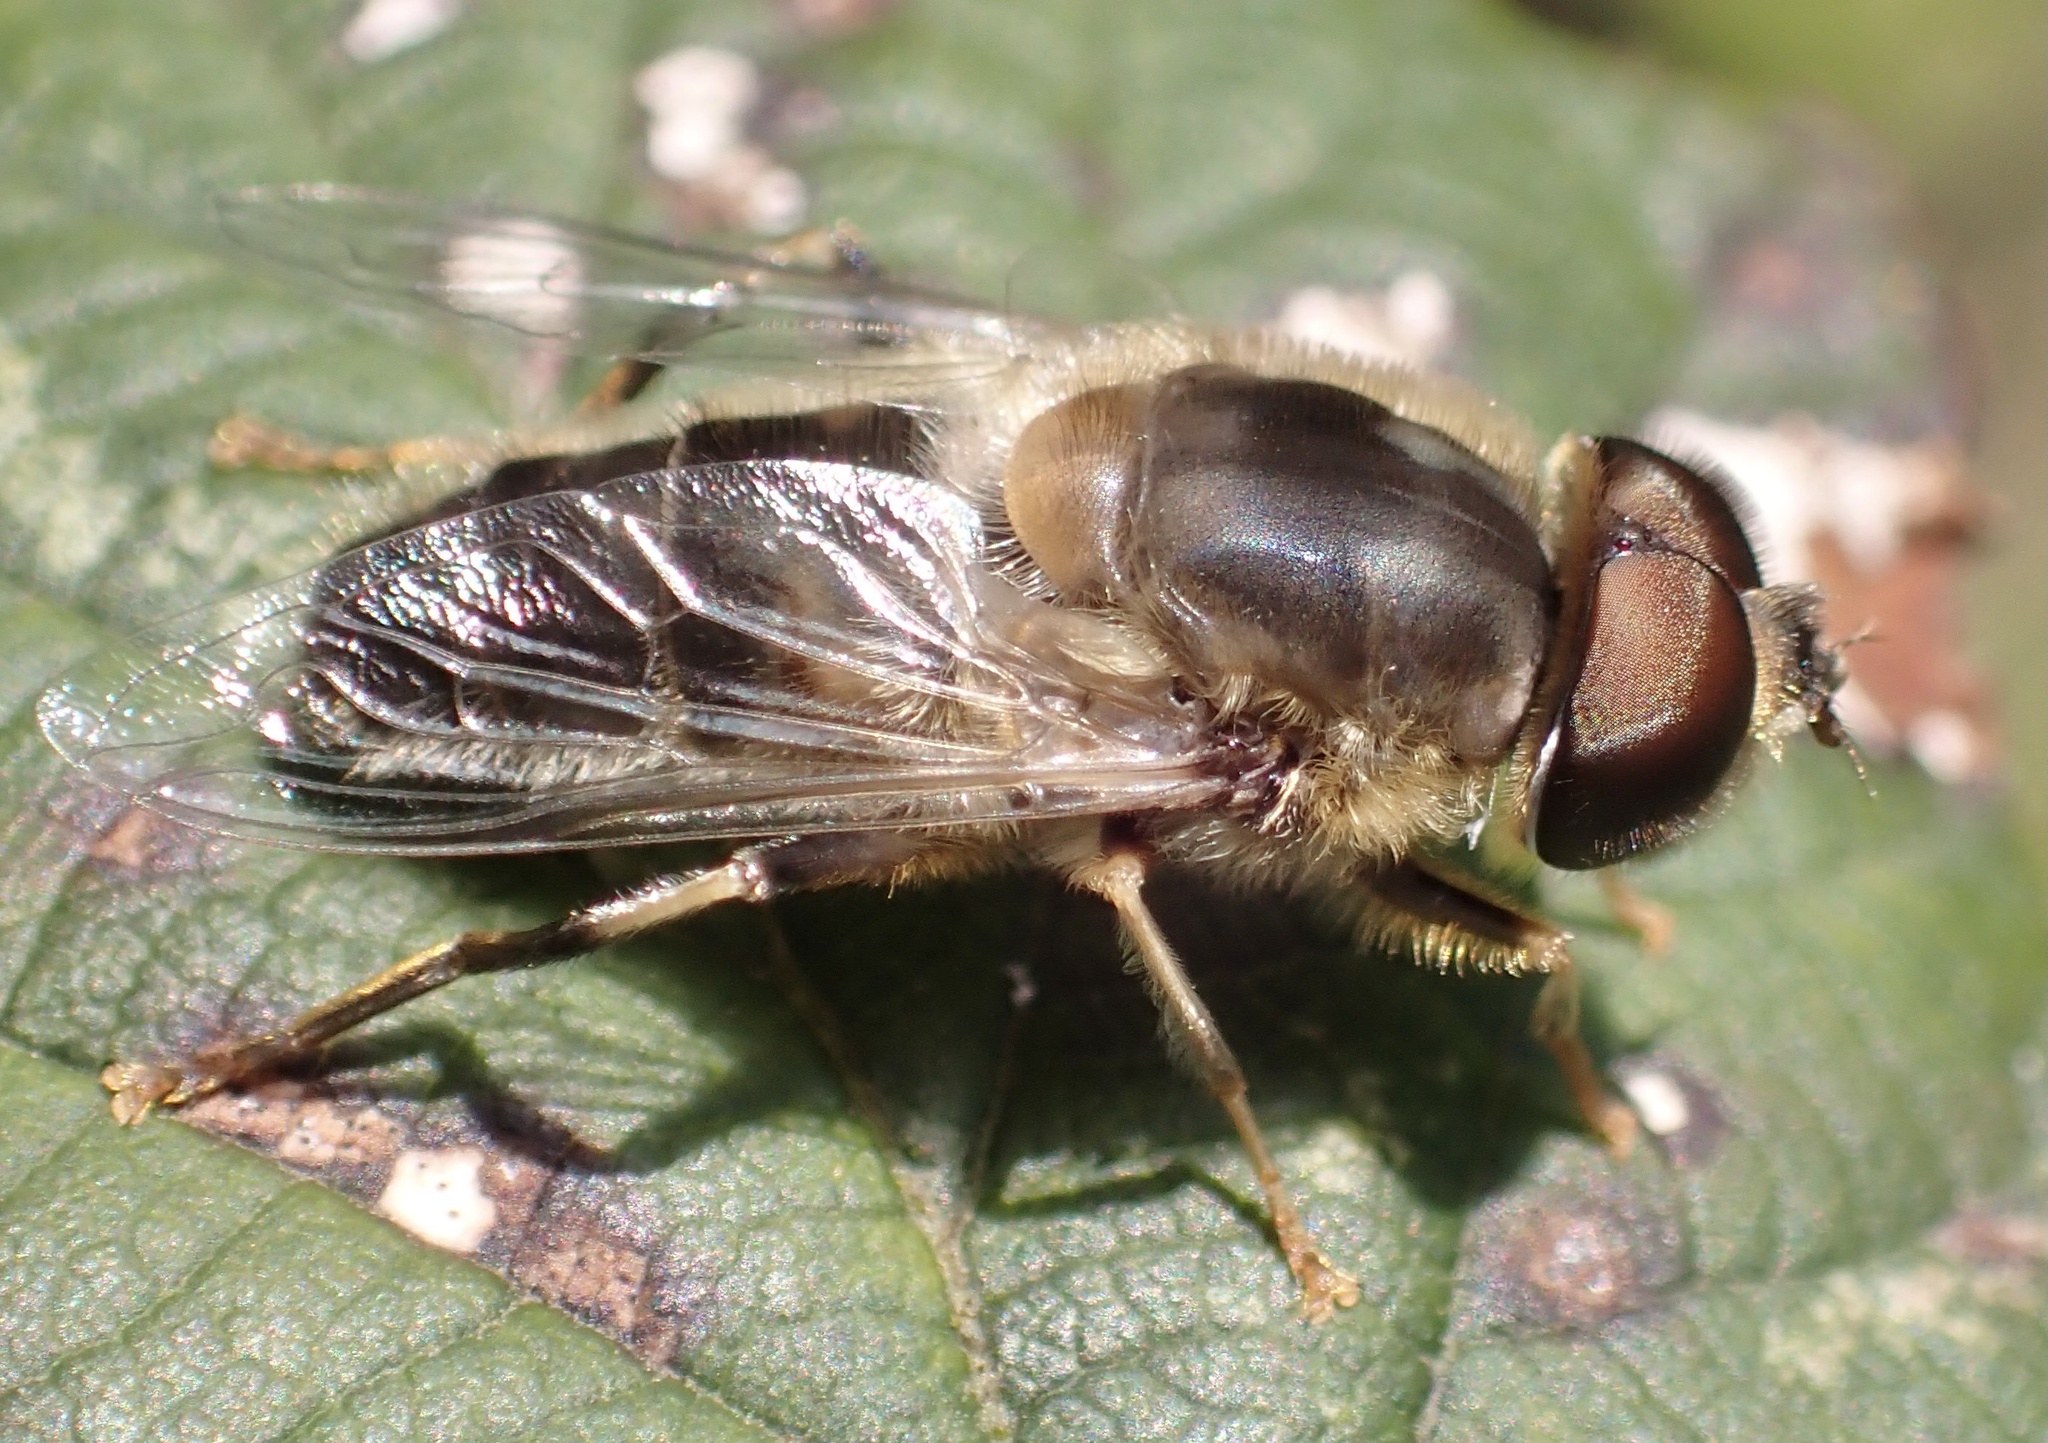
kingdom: Animalia
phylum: Arthropoda
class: Insecta
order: Diptera
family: Syrphidae
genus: Eristalis
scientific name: Eristalis pertinax
